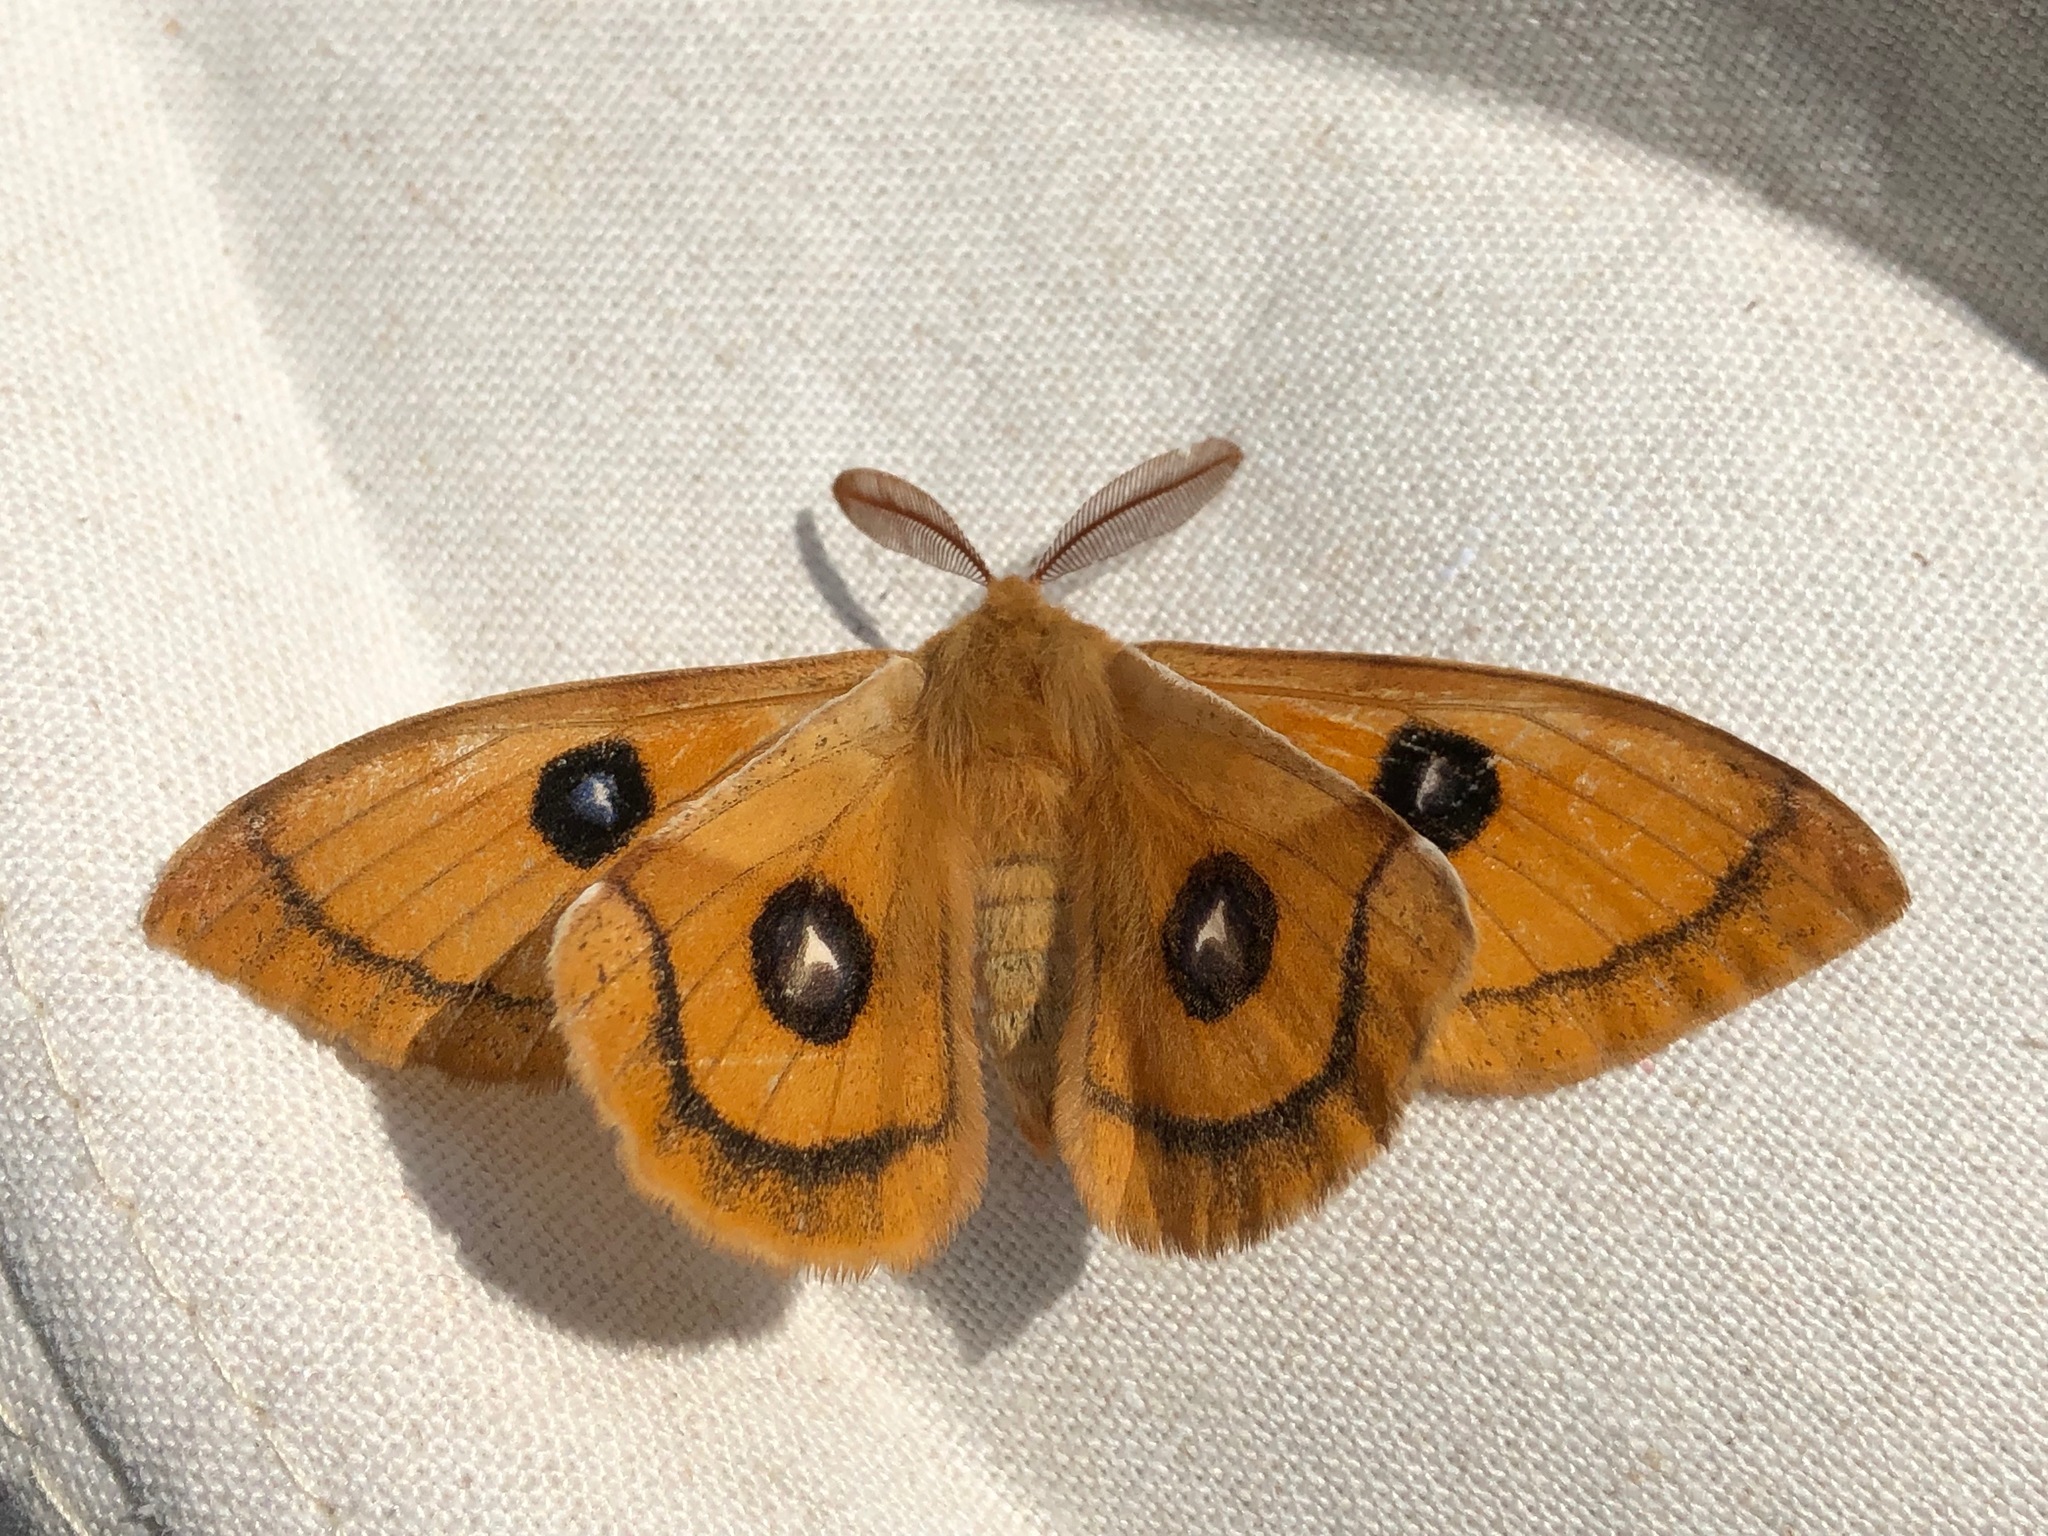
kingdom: Animalia
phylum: Arthropoda
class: Insecta
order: Lepidoptera
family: Saturniidae
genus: Aglia
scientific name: Aglia tau
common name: Tau emperor
